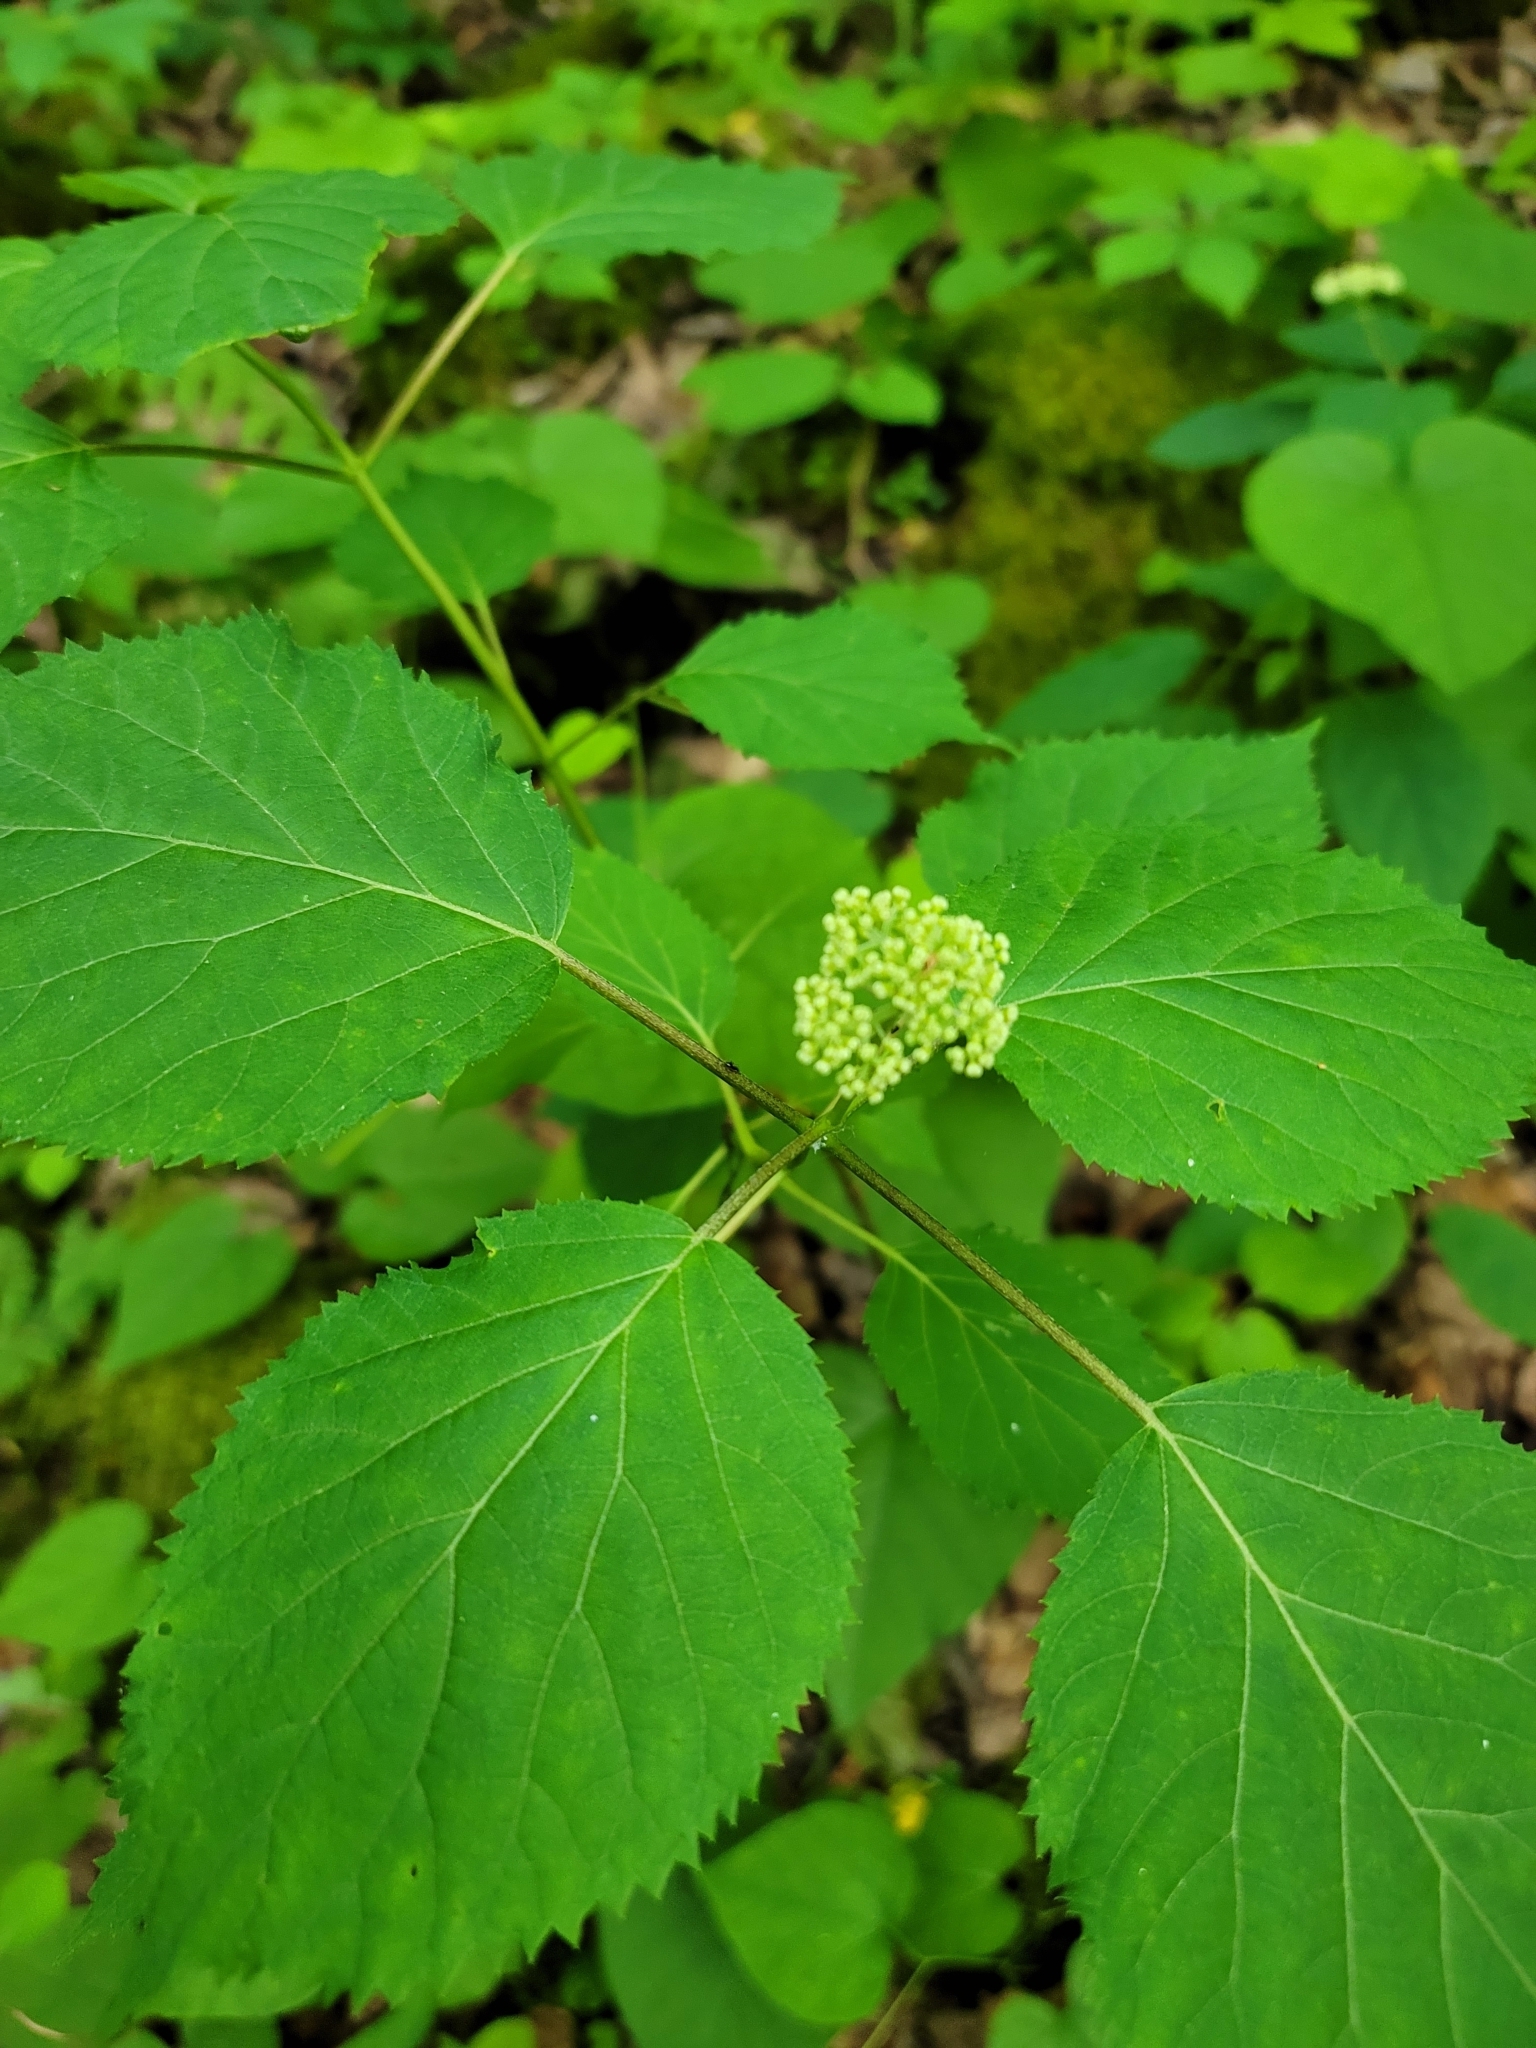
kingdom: Plantae
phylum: Tracheophyta
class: Magnoliopsida
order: Cornales
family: Hydrangeaceae
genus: Hydrangea
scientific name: Hydrangea arborescens
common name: Sevenbark
